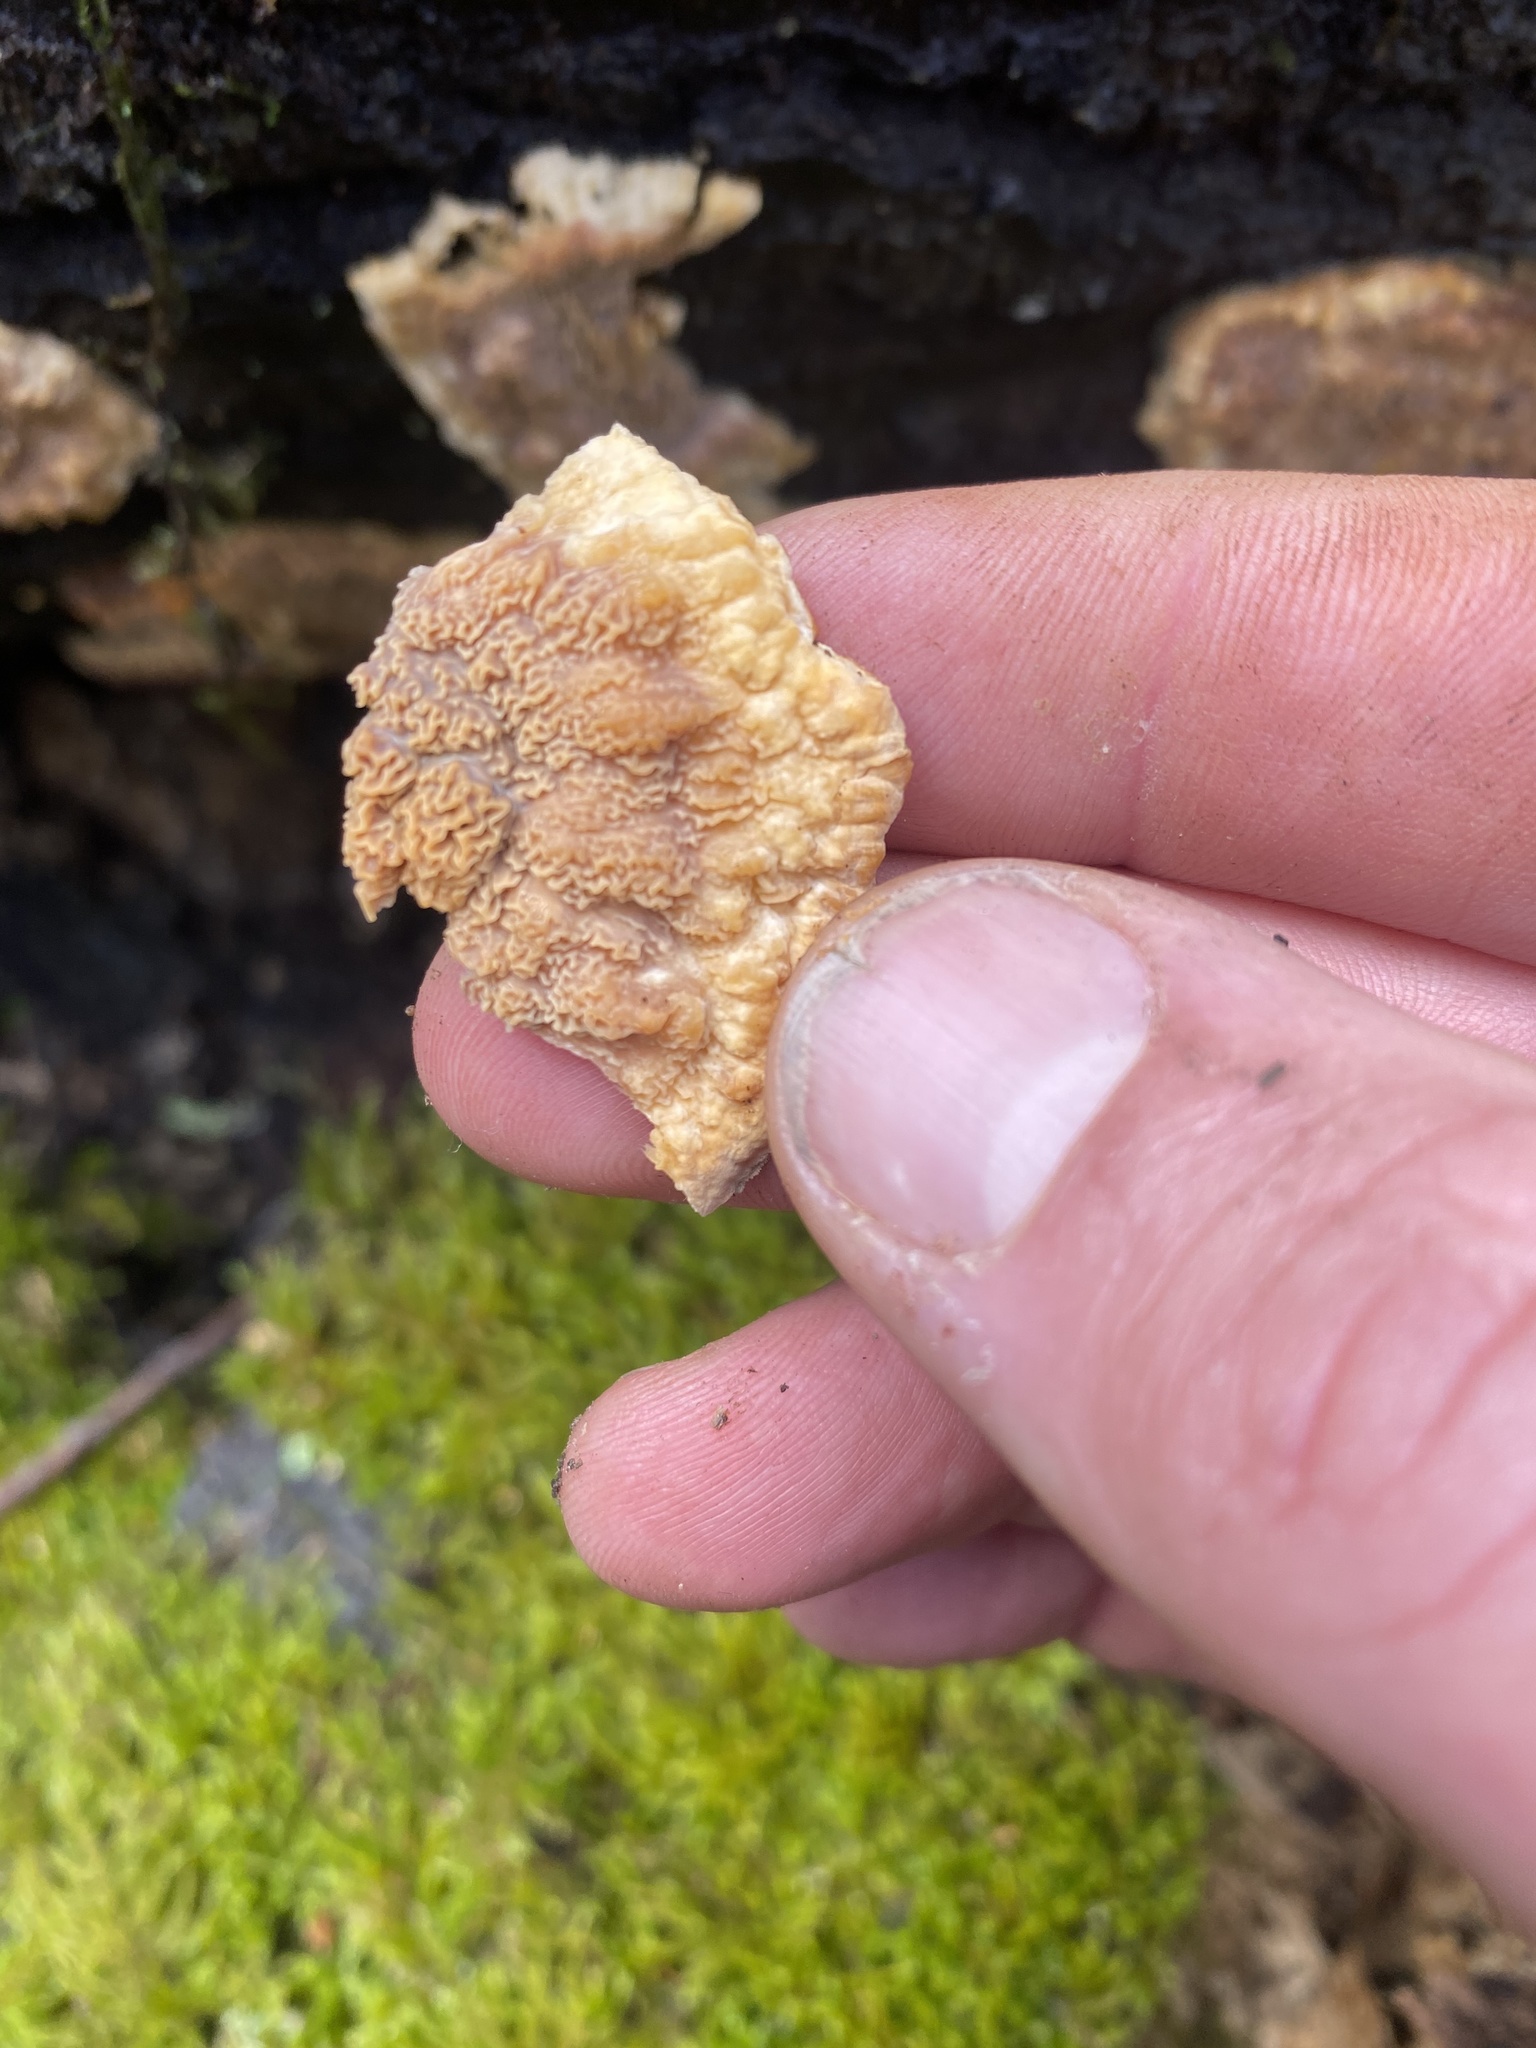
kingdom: Fungi
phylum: Basidiomycota
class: Agaricomycetes
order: Polyporales
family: Meruliaceae
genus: Phlebia
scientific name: Phlebia radiata
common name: Wrinkled crust
